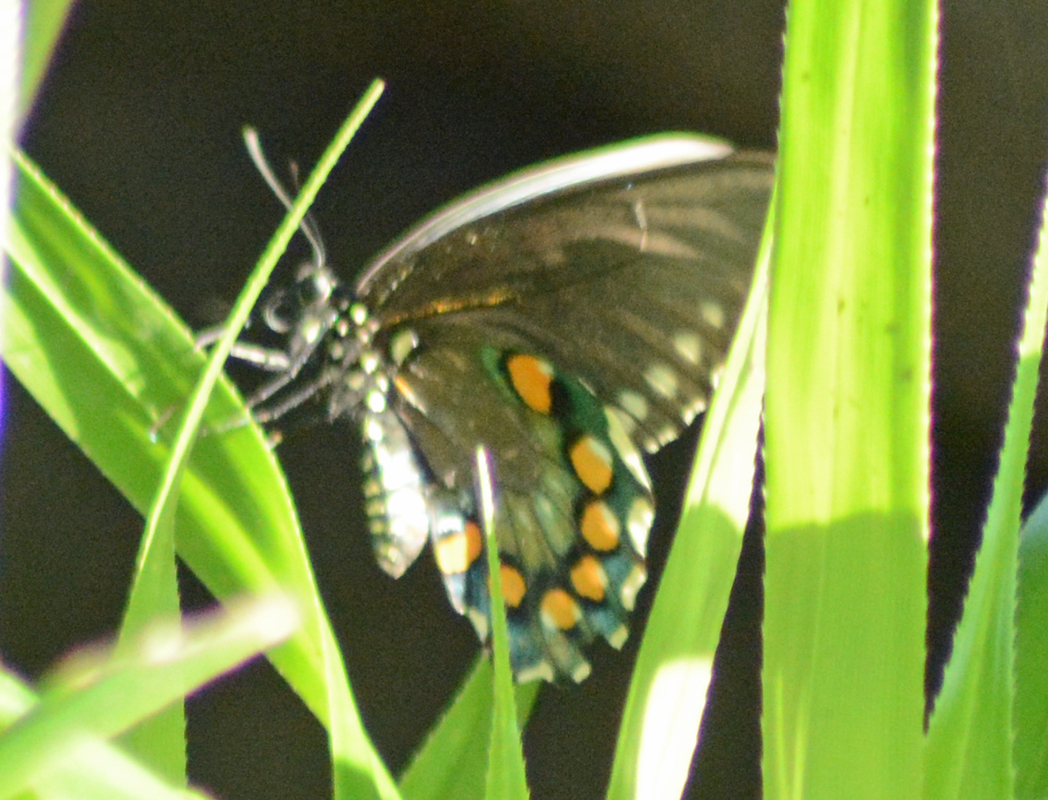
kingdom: Animalia
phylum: Arthropoda
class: Insecta
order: Lepidoptera
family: Papilionidae
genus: Battus
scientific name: Battus philenor
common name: Pipevine swallowtail
